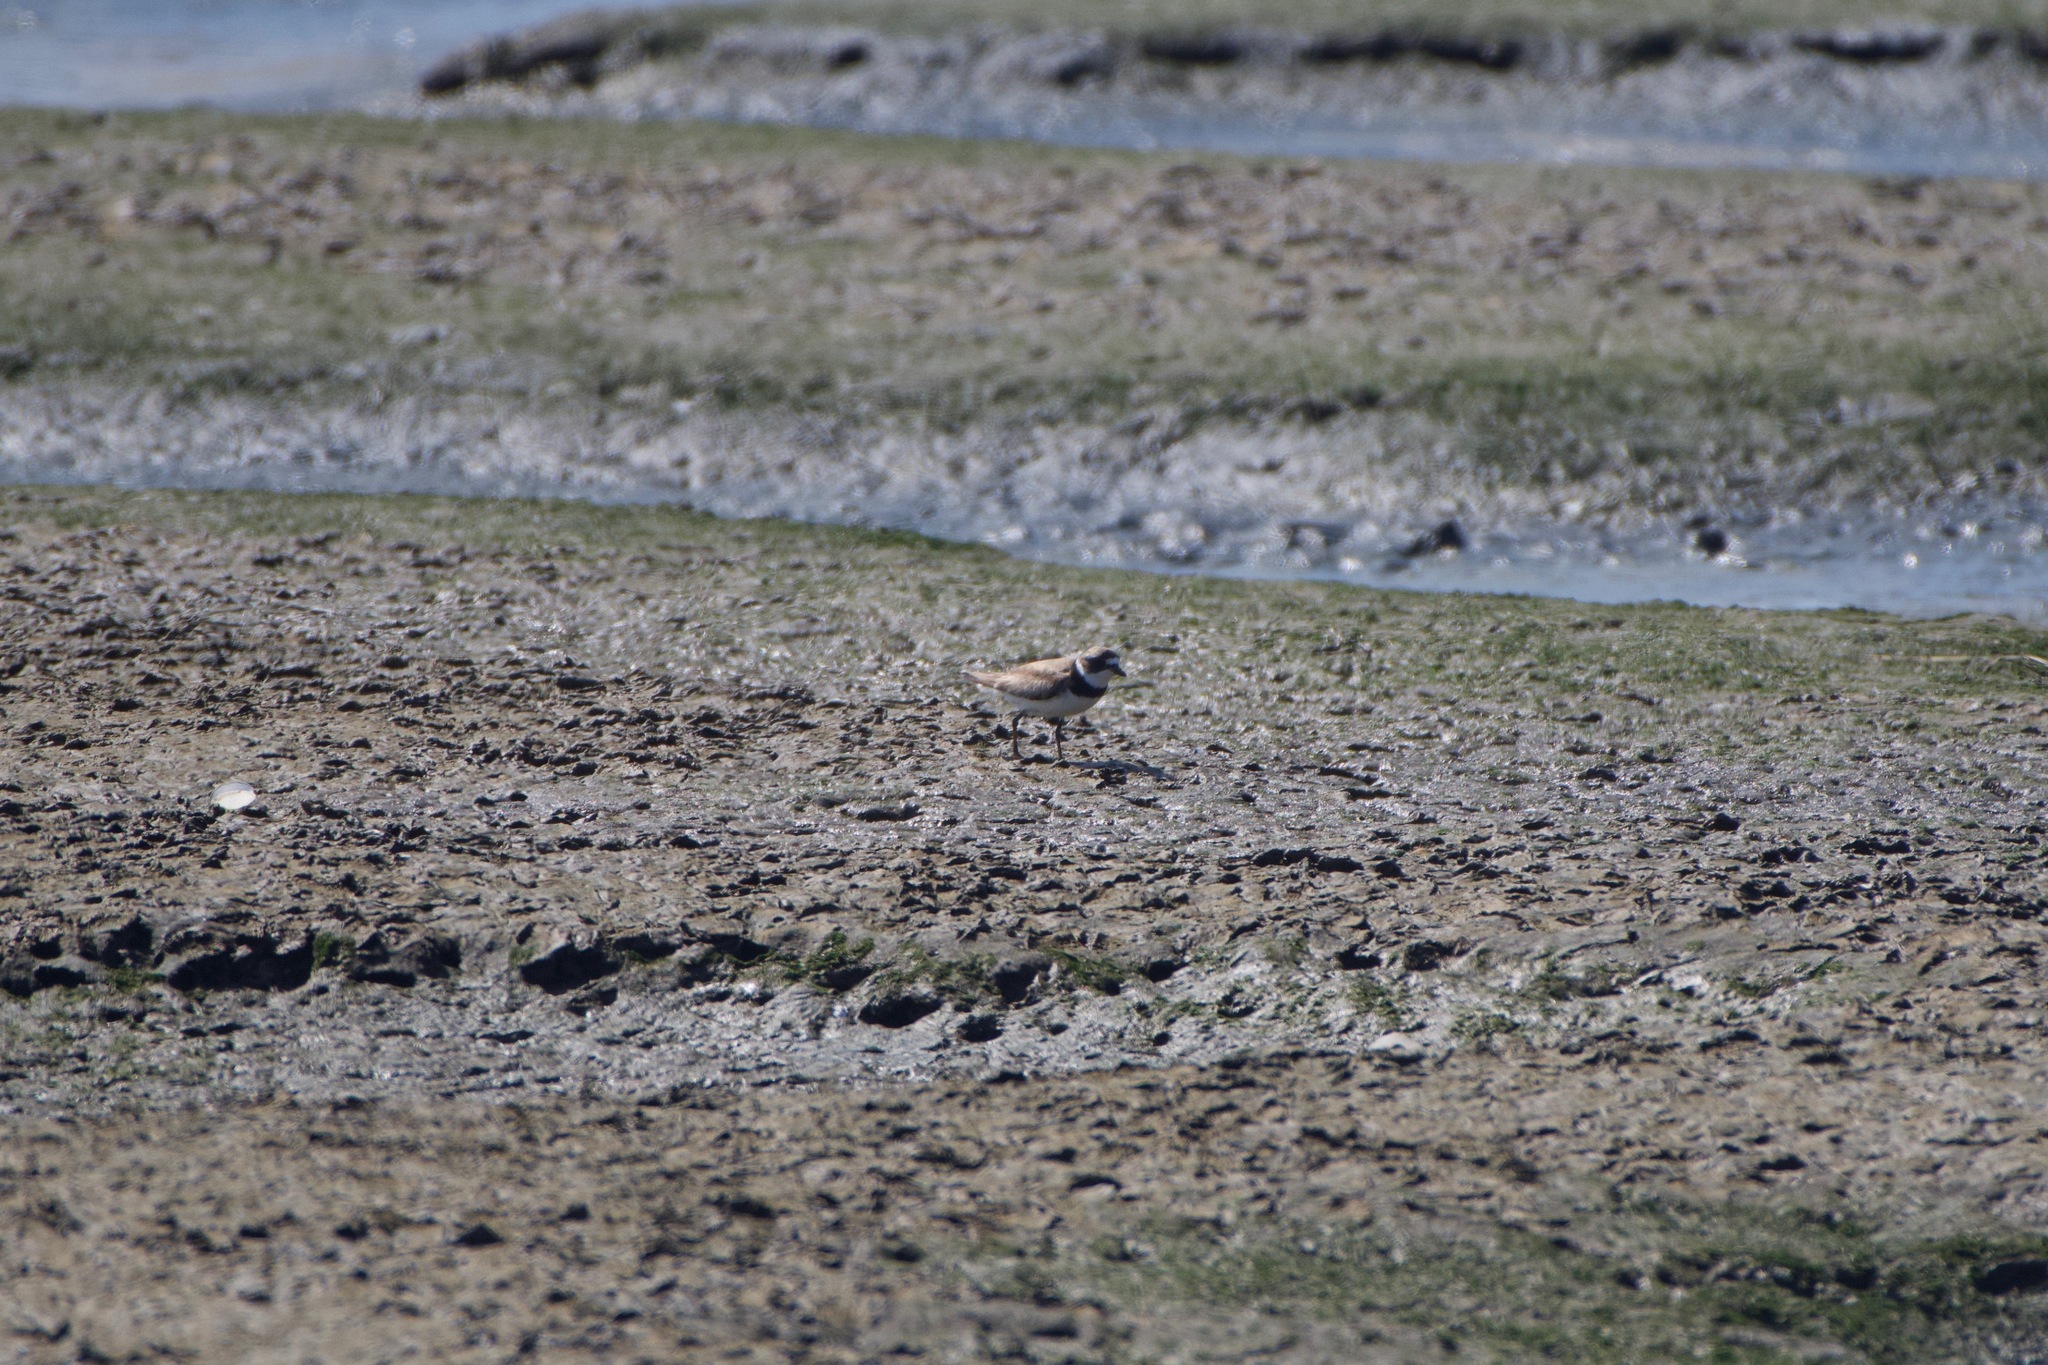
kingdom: Animalia
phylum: Chordata
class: Aves
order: Charadriiformes
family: Charadriidae
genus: Charadrius
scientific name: Charadrius semipalmatus
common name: Semipalmated plover
